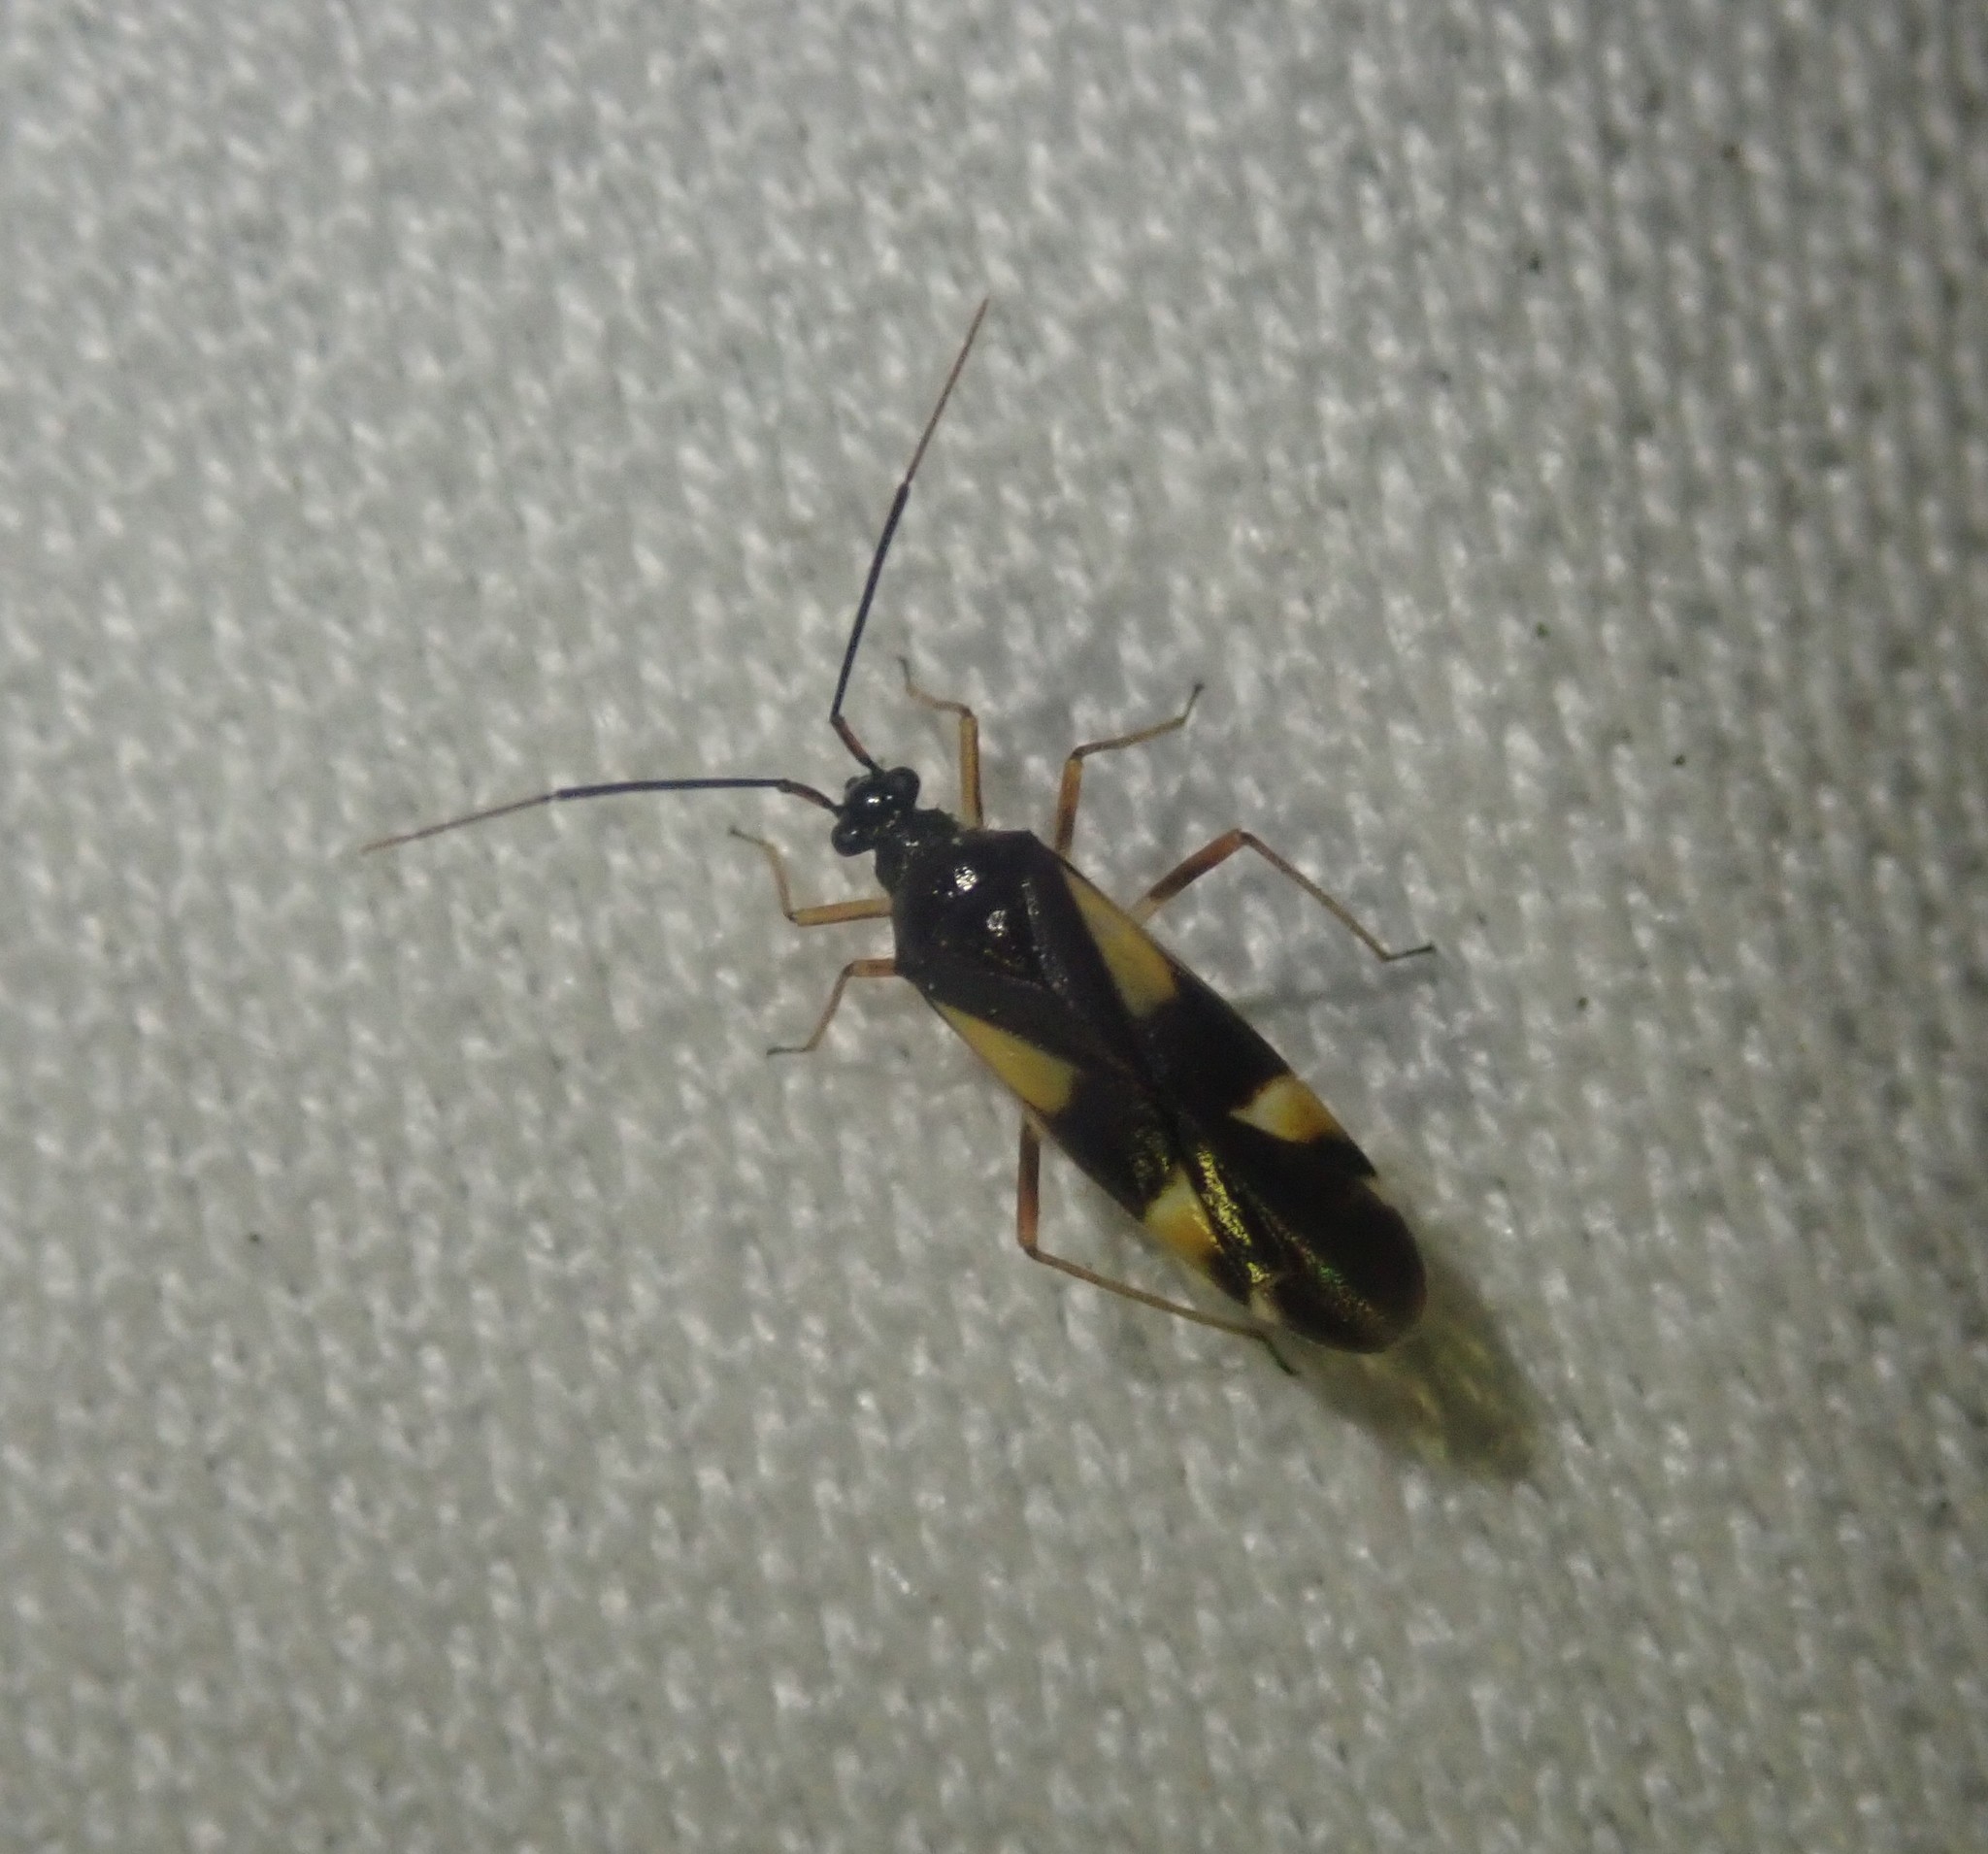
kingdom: Animalia
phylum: Arthropoda
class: Insecta
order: Hemiptera
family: Miridae
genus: Dryophilocoris
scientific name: Dryophilocoris flavoquadrimaculatus
